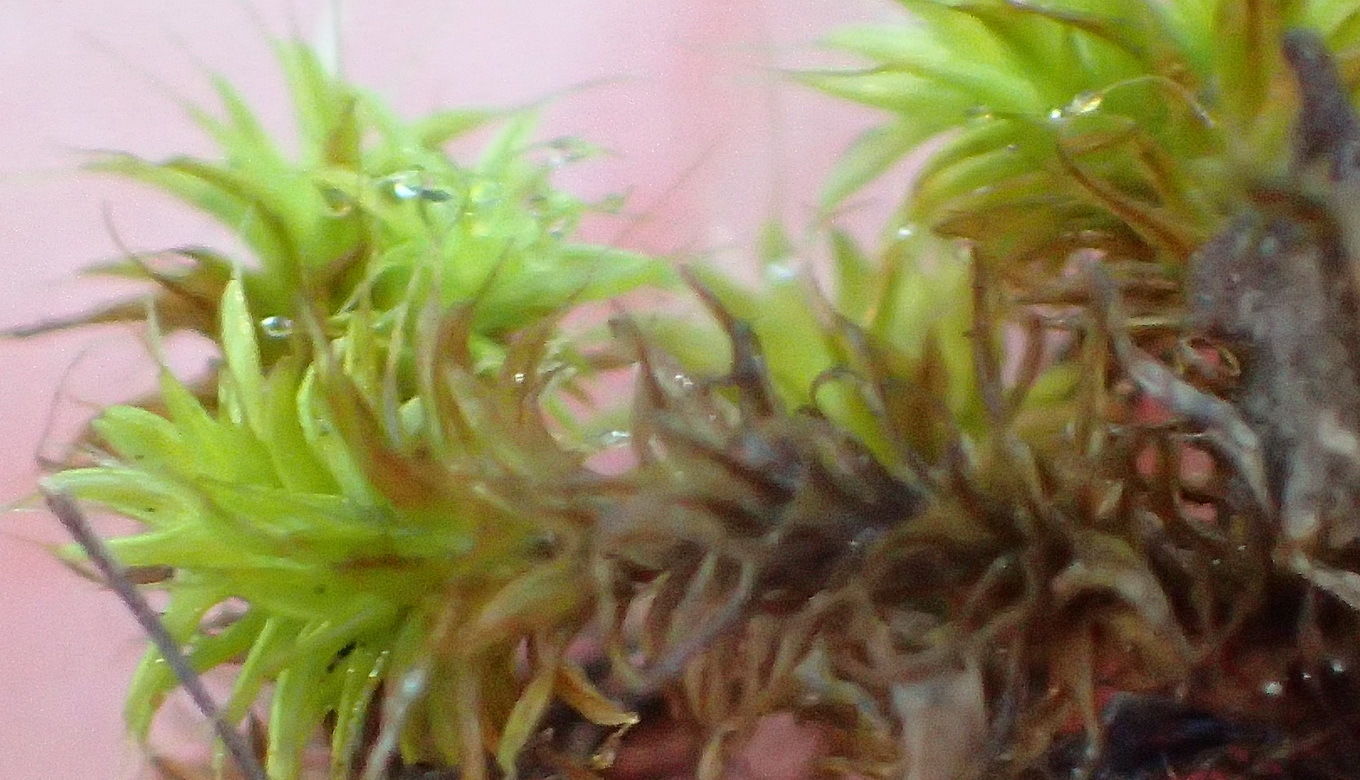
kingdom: Plantae
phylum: Bryophyta
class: Bryopsida
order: Pottiales
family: Pottiaceae
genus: Pseudocrossidium
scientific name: Pseudocrossidium crinitum
